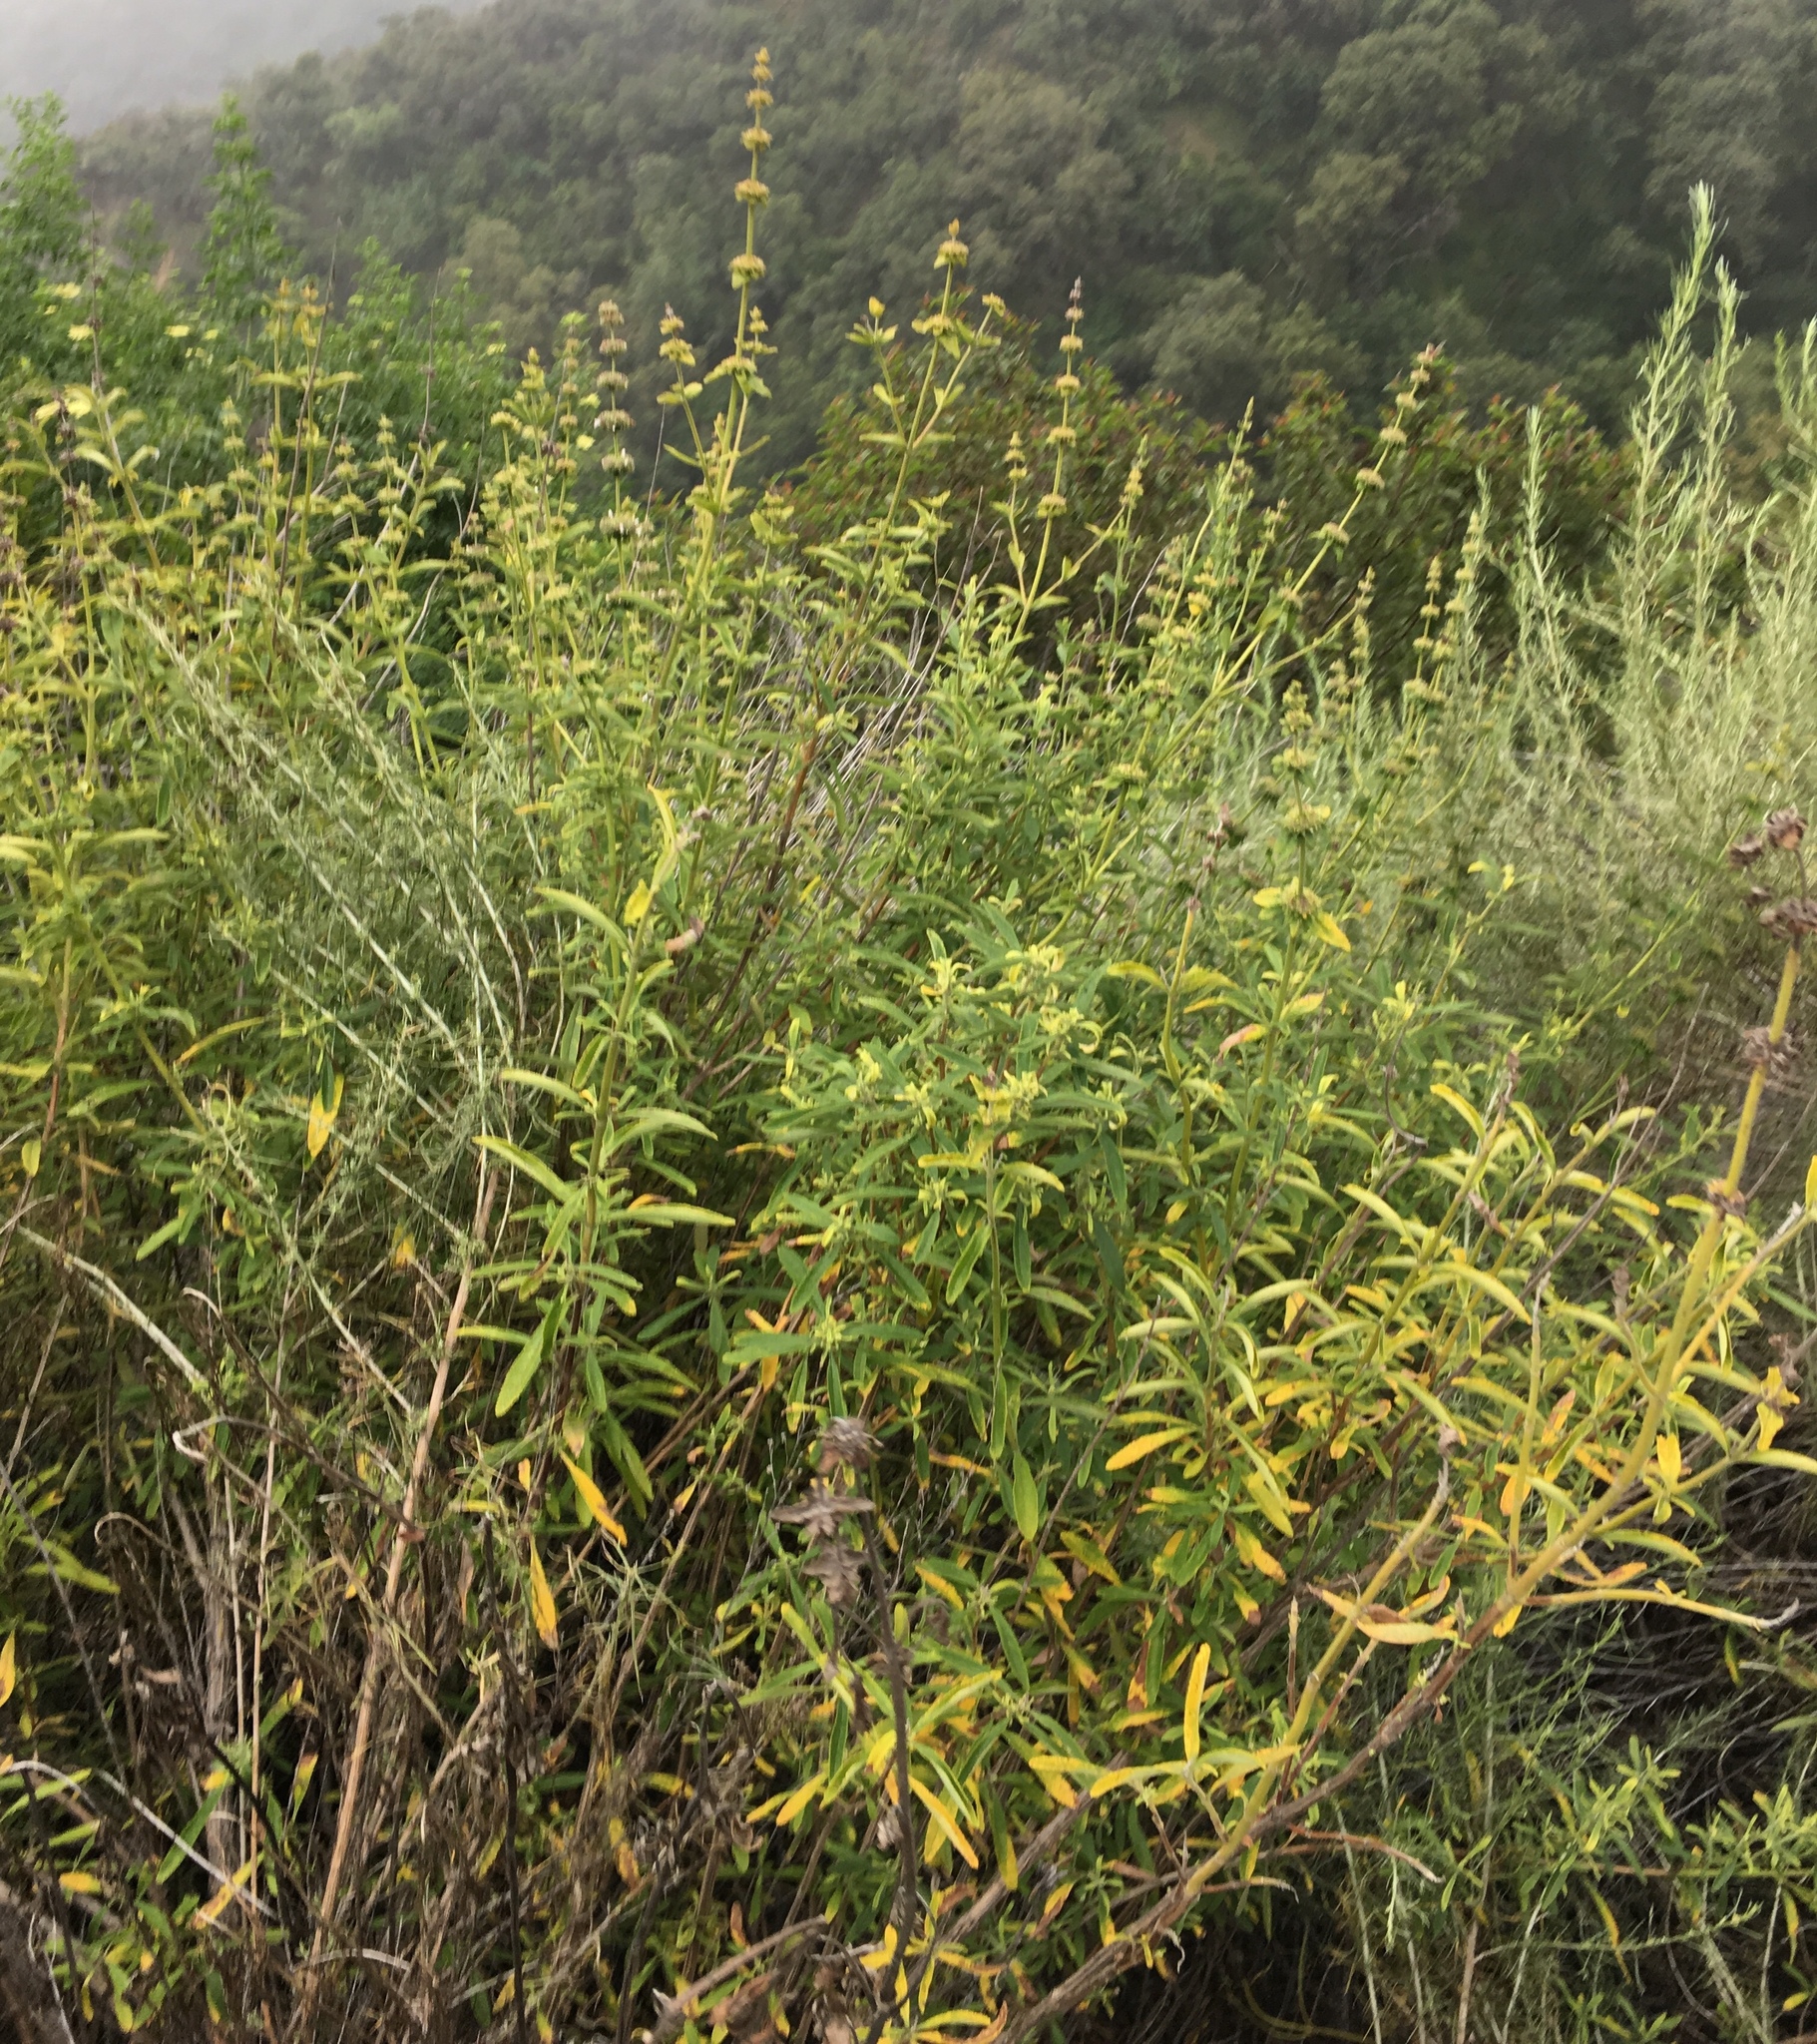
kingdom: Plantae
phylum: Tracheophyta
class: Magnoliopsida
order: Lamiales
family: Lamiaceae
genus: Salvia
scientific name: Salvia mellifera
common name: Black sage
